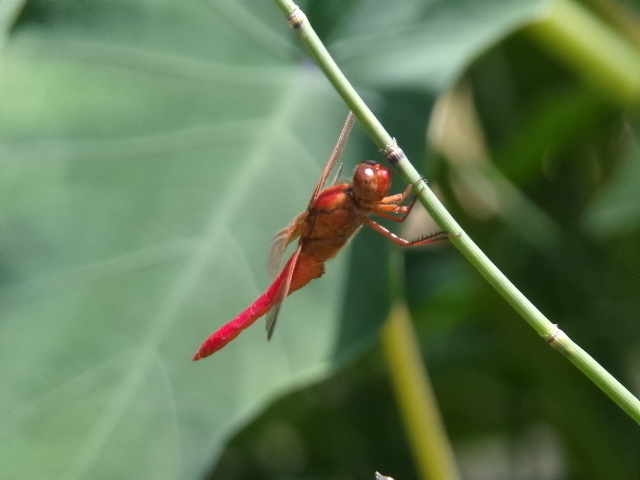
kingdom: Animalia
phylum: Arthropoda
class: Insecta
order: Odonata
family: Libellulidae
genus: Libellula
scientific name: Libellula croceipennis
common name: Neon skimmer
